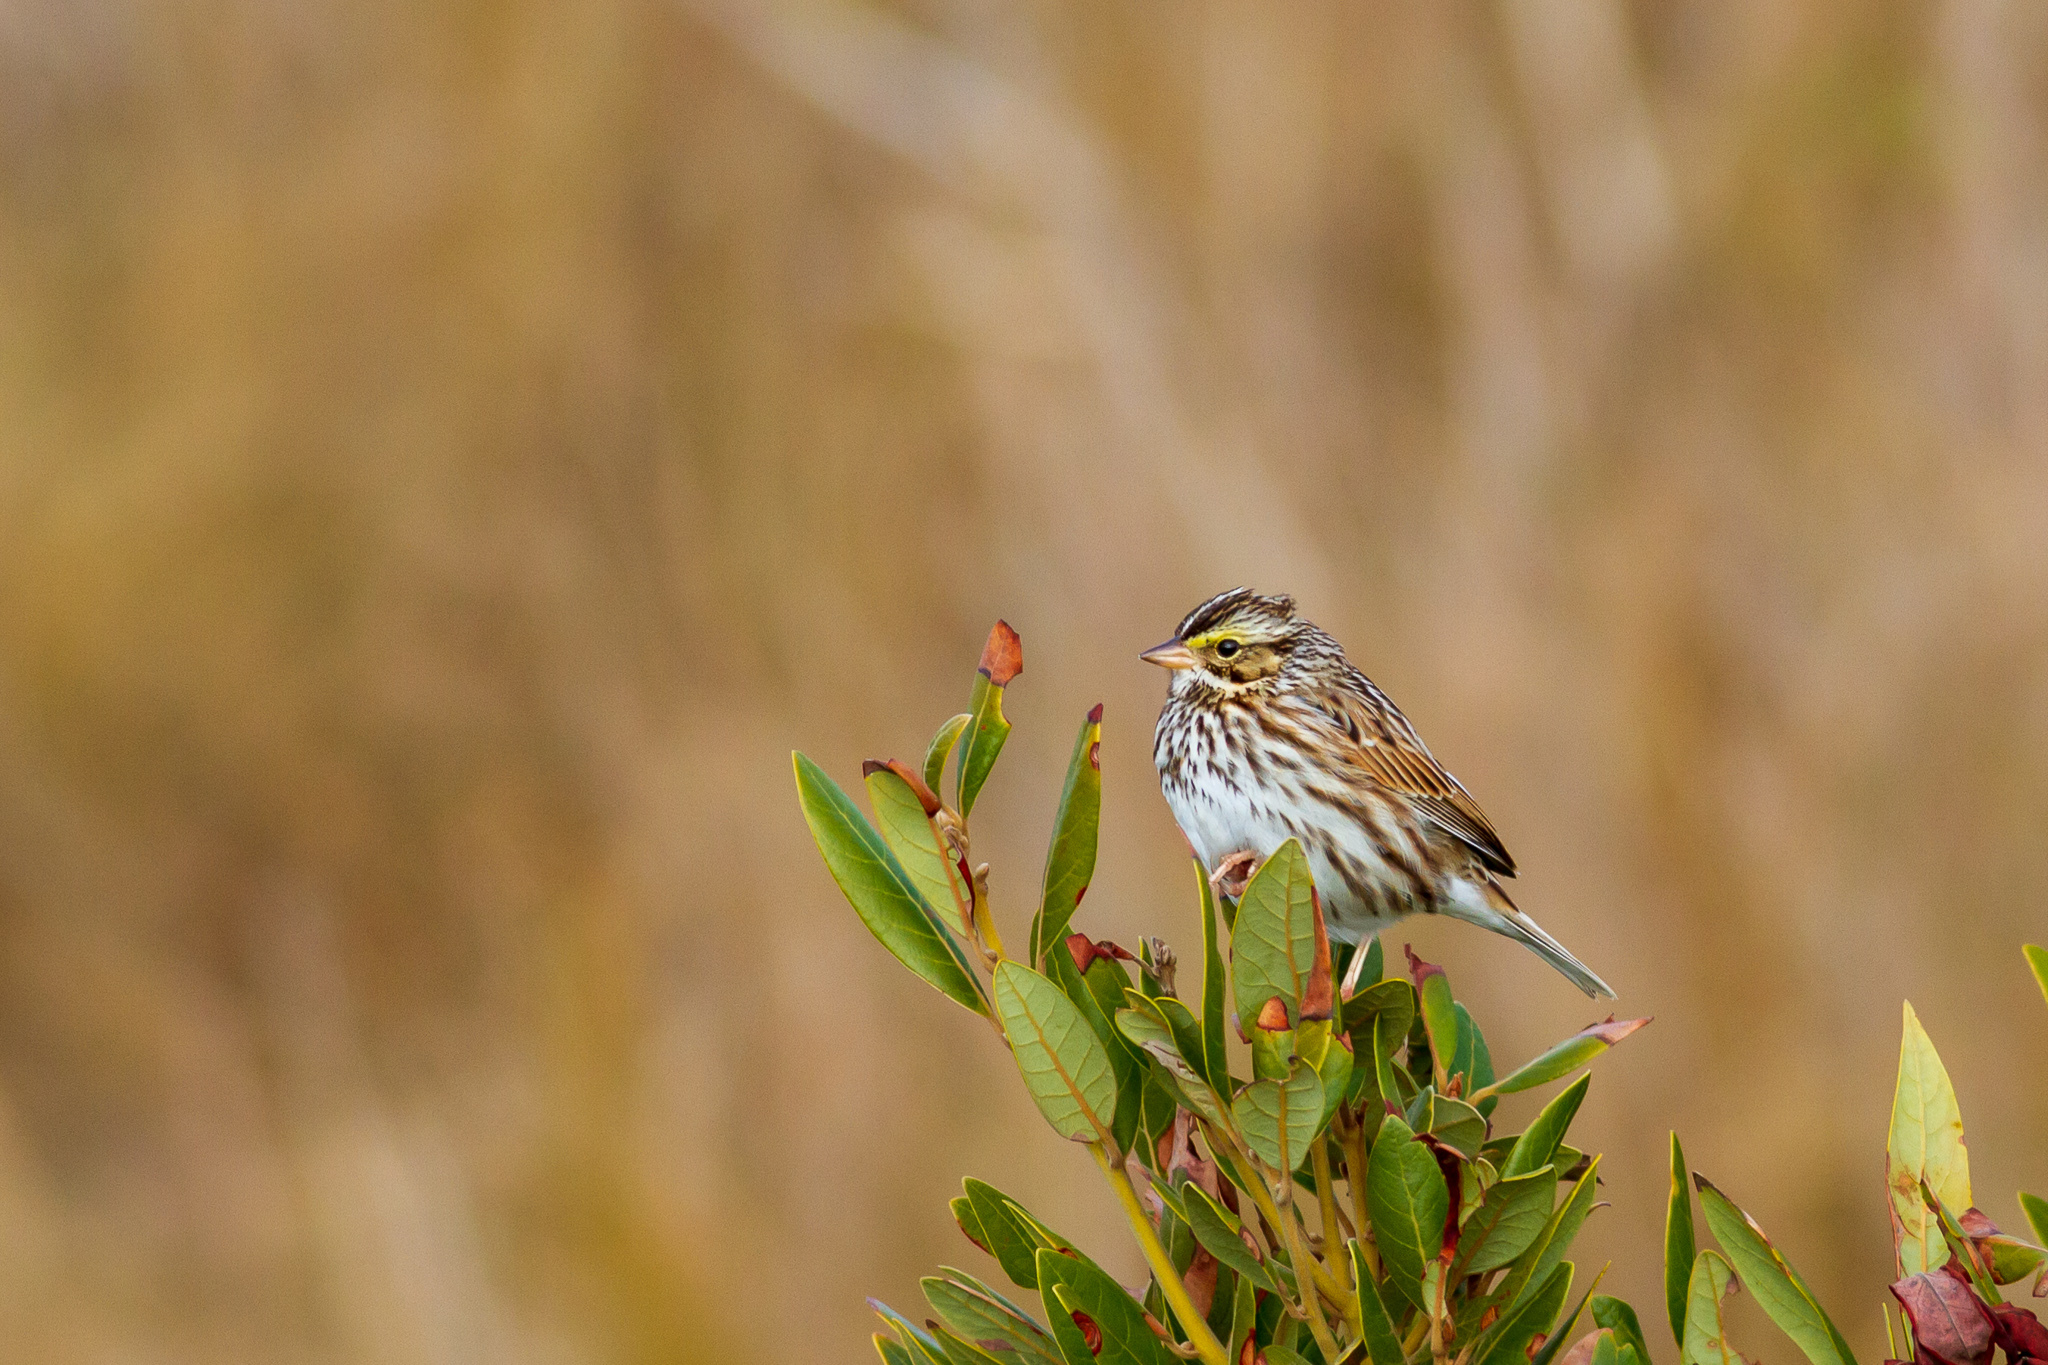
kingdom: Animalia
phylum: Chordata
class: Aves
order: Passeriformes
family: Passerellidae
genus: Passerculus
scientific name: Passerculus sandwichensis
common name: Savannah sparrow
